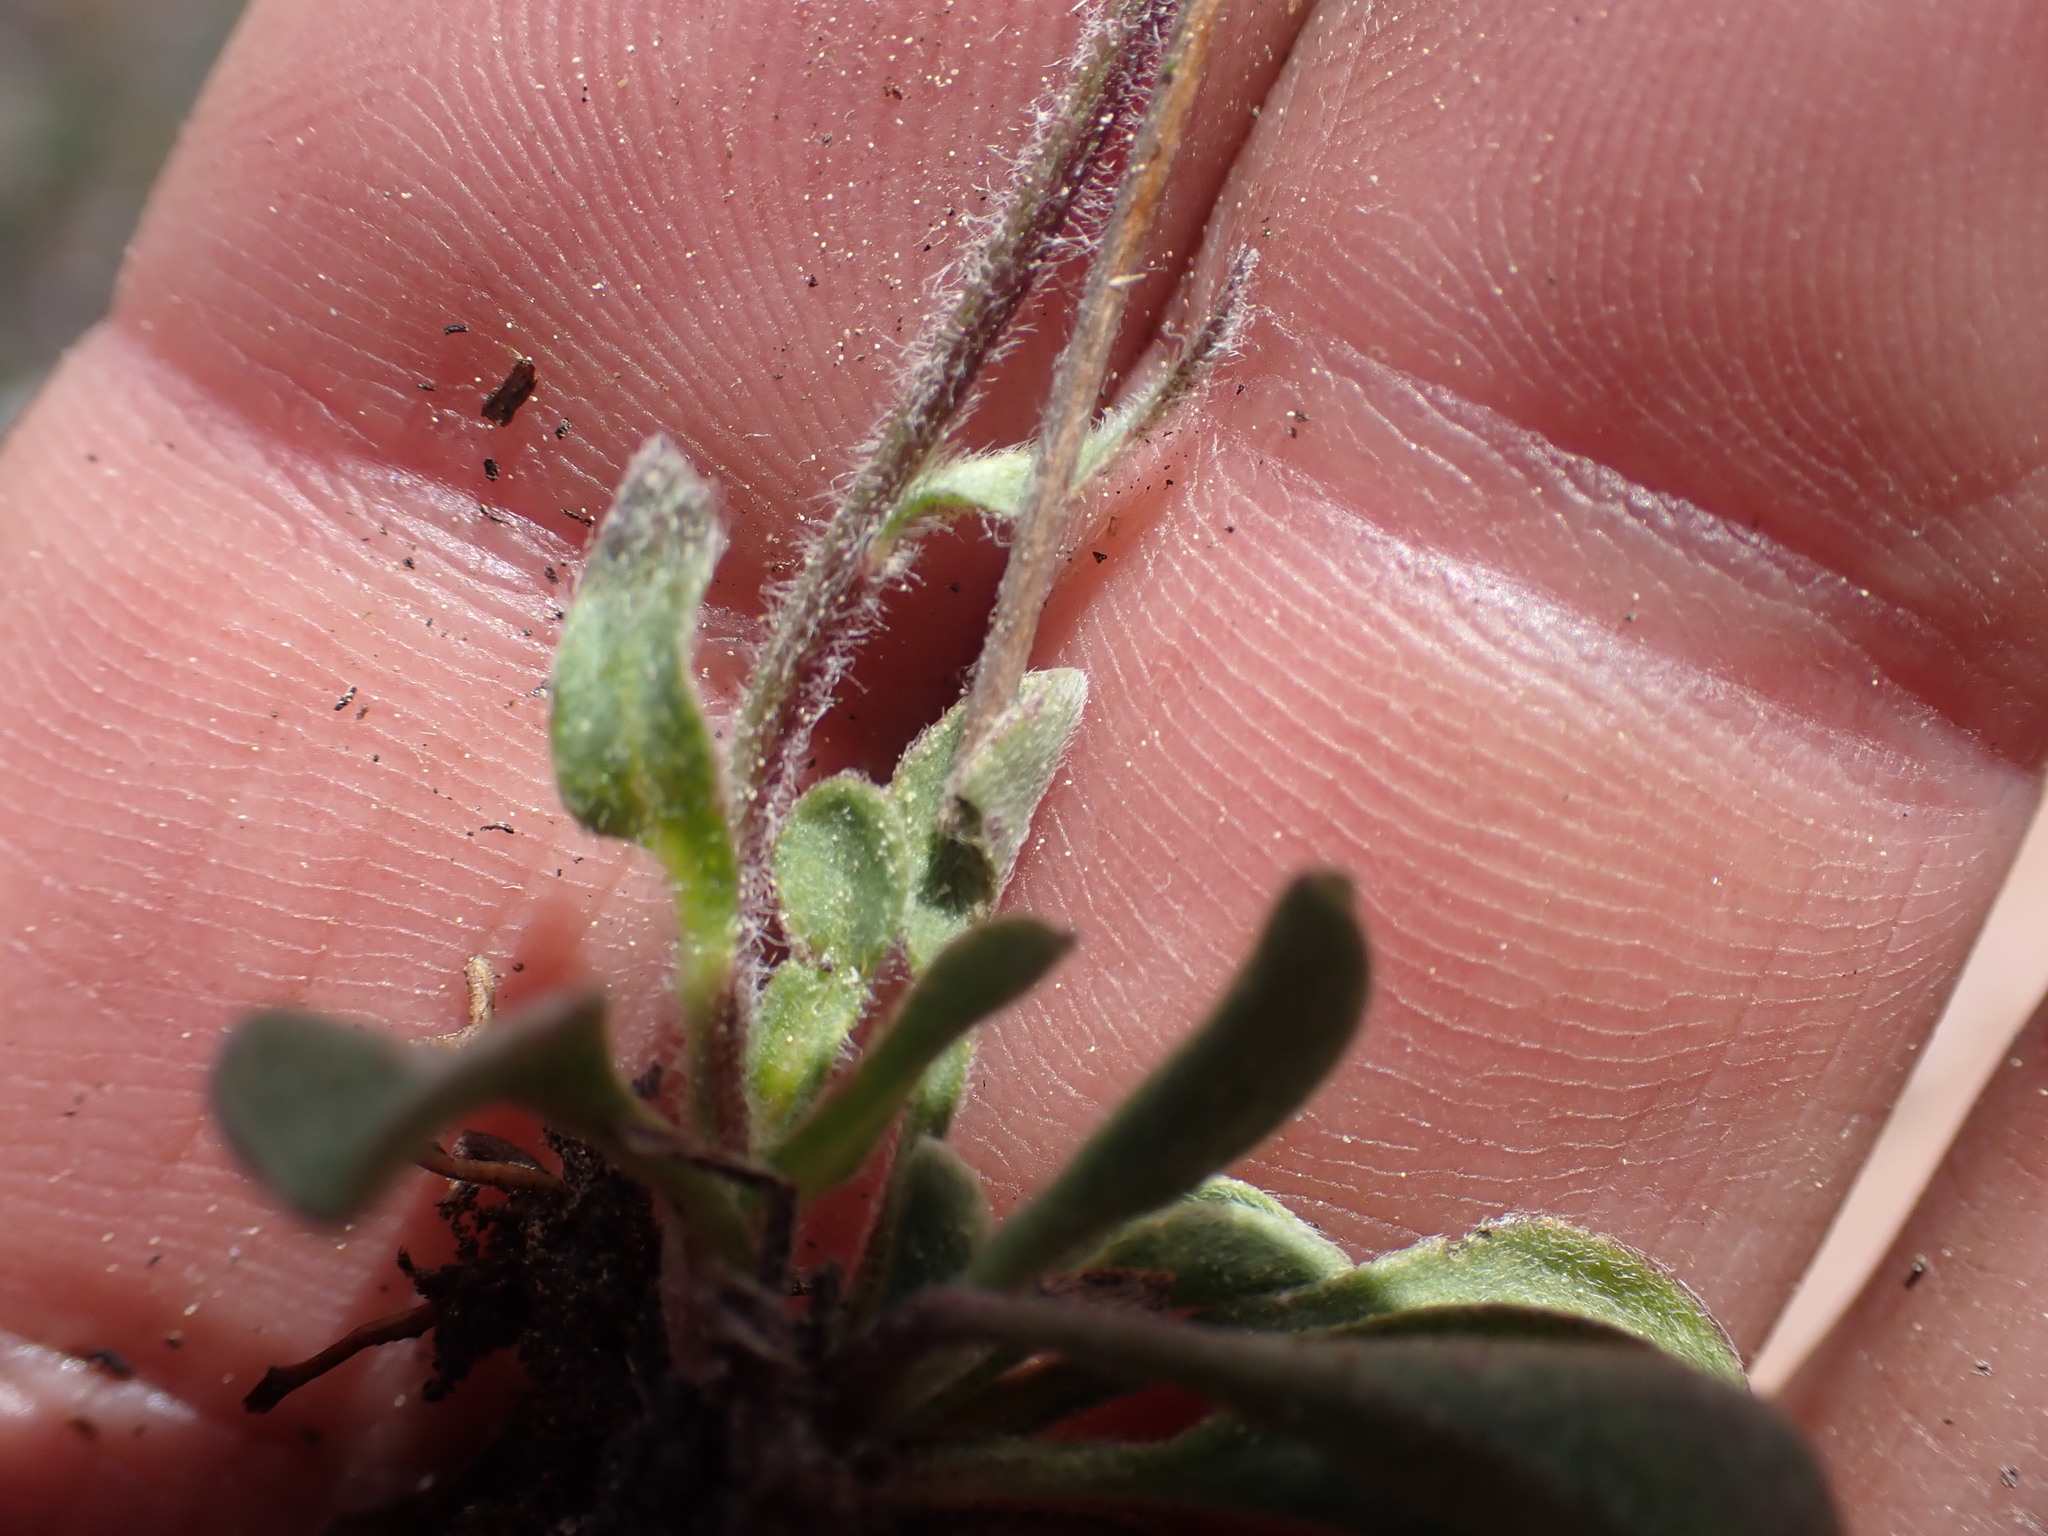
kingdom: Plantae
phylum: Tracheophyta
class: Magnoliopsida
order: Asterales
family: Asteraceae
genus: Erigeron
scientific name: Erigeron aureus
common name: Alpine yellow fleabane
